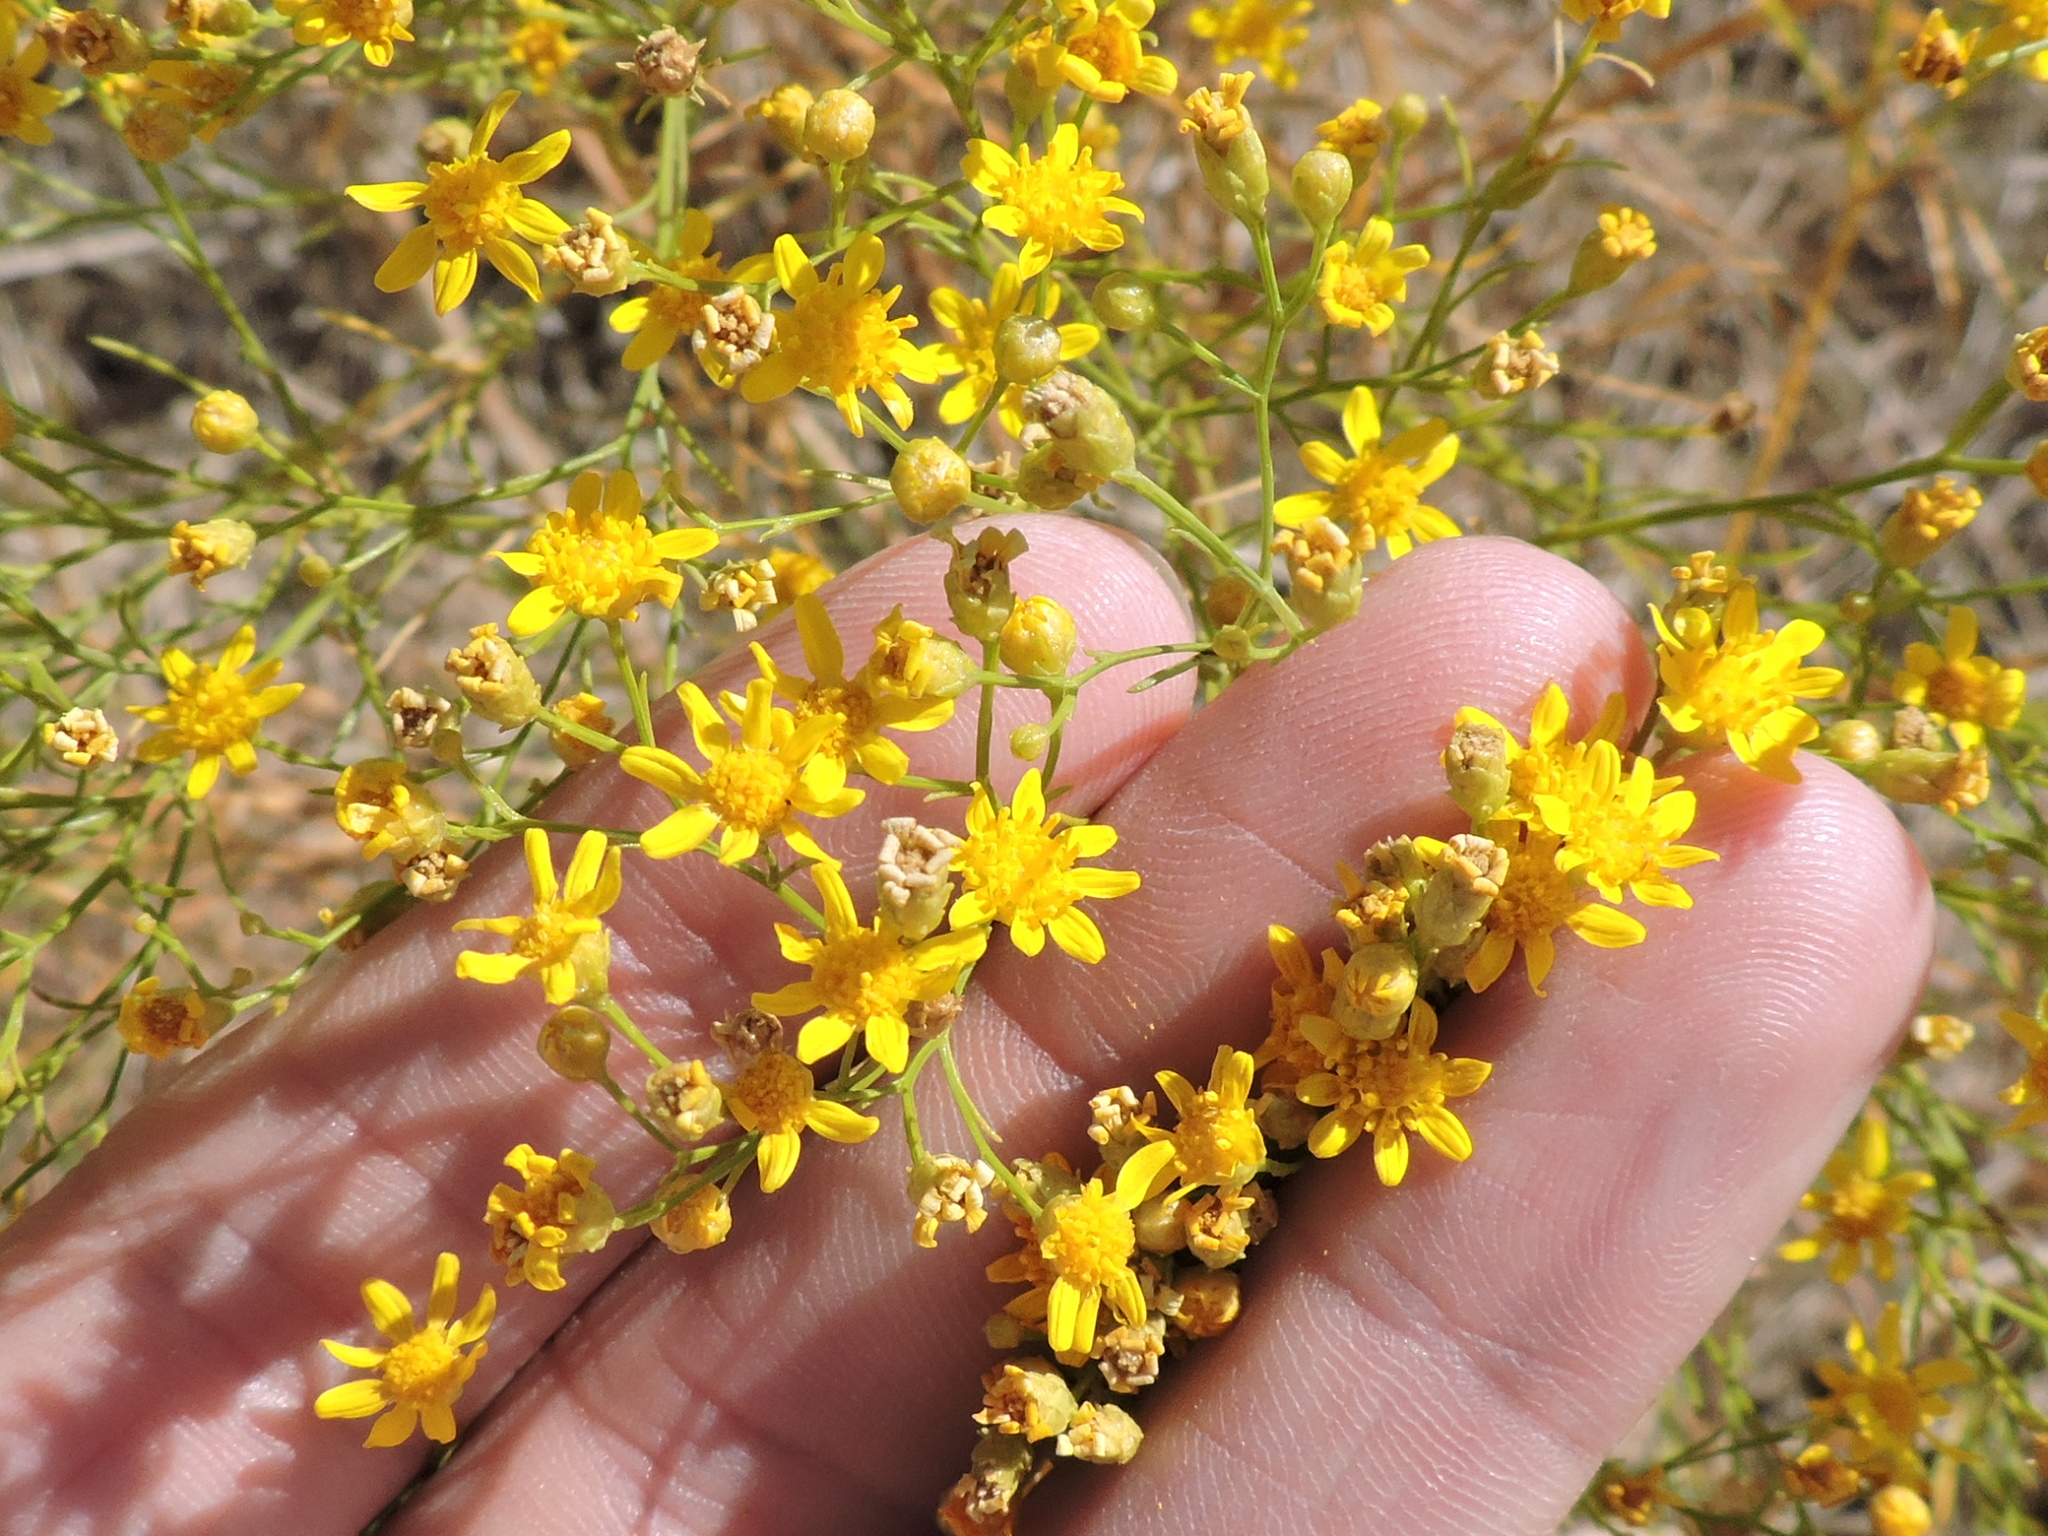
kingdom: Plantae
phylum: Tracheophyta
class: Magnoliopsida
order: Asterales
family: Asteraceae
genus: Amphiachyris
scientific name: Amphiachyris dracunculoides
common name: Broomweed
